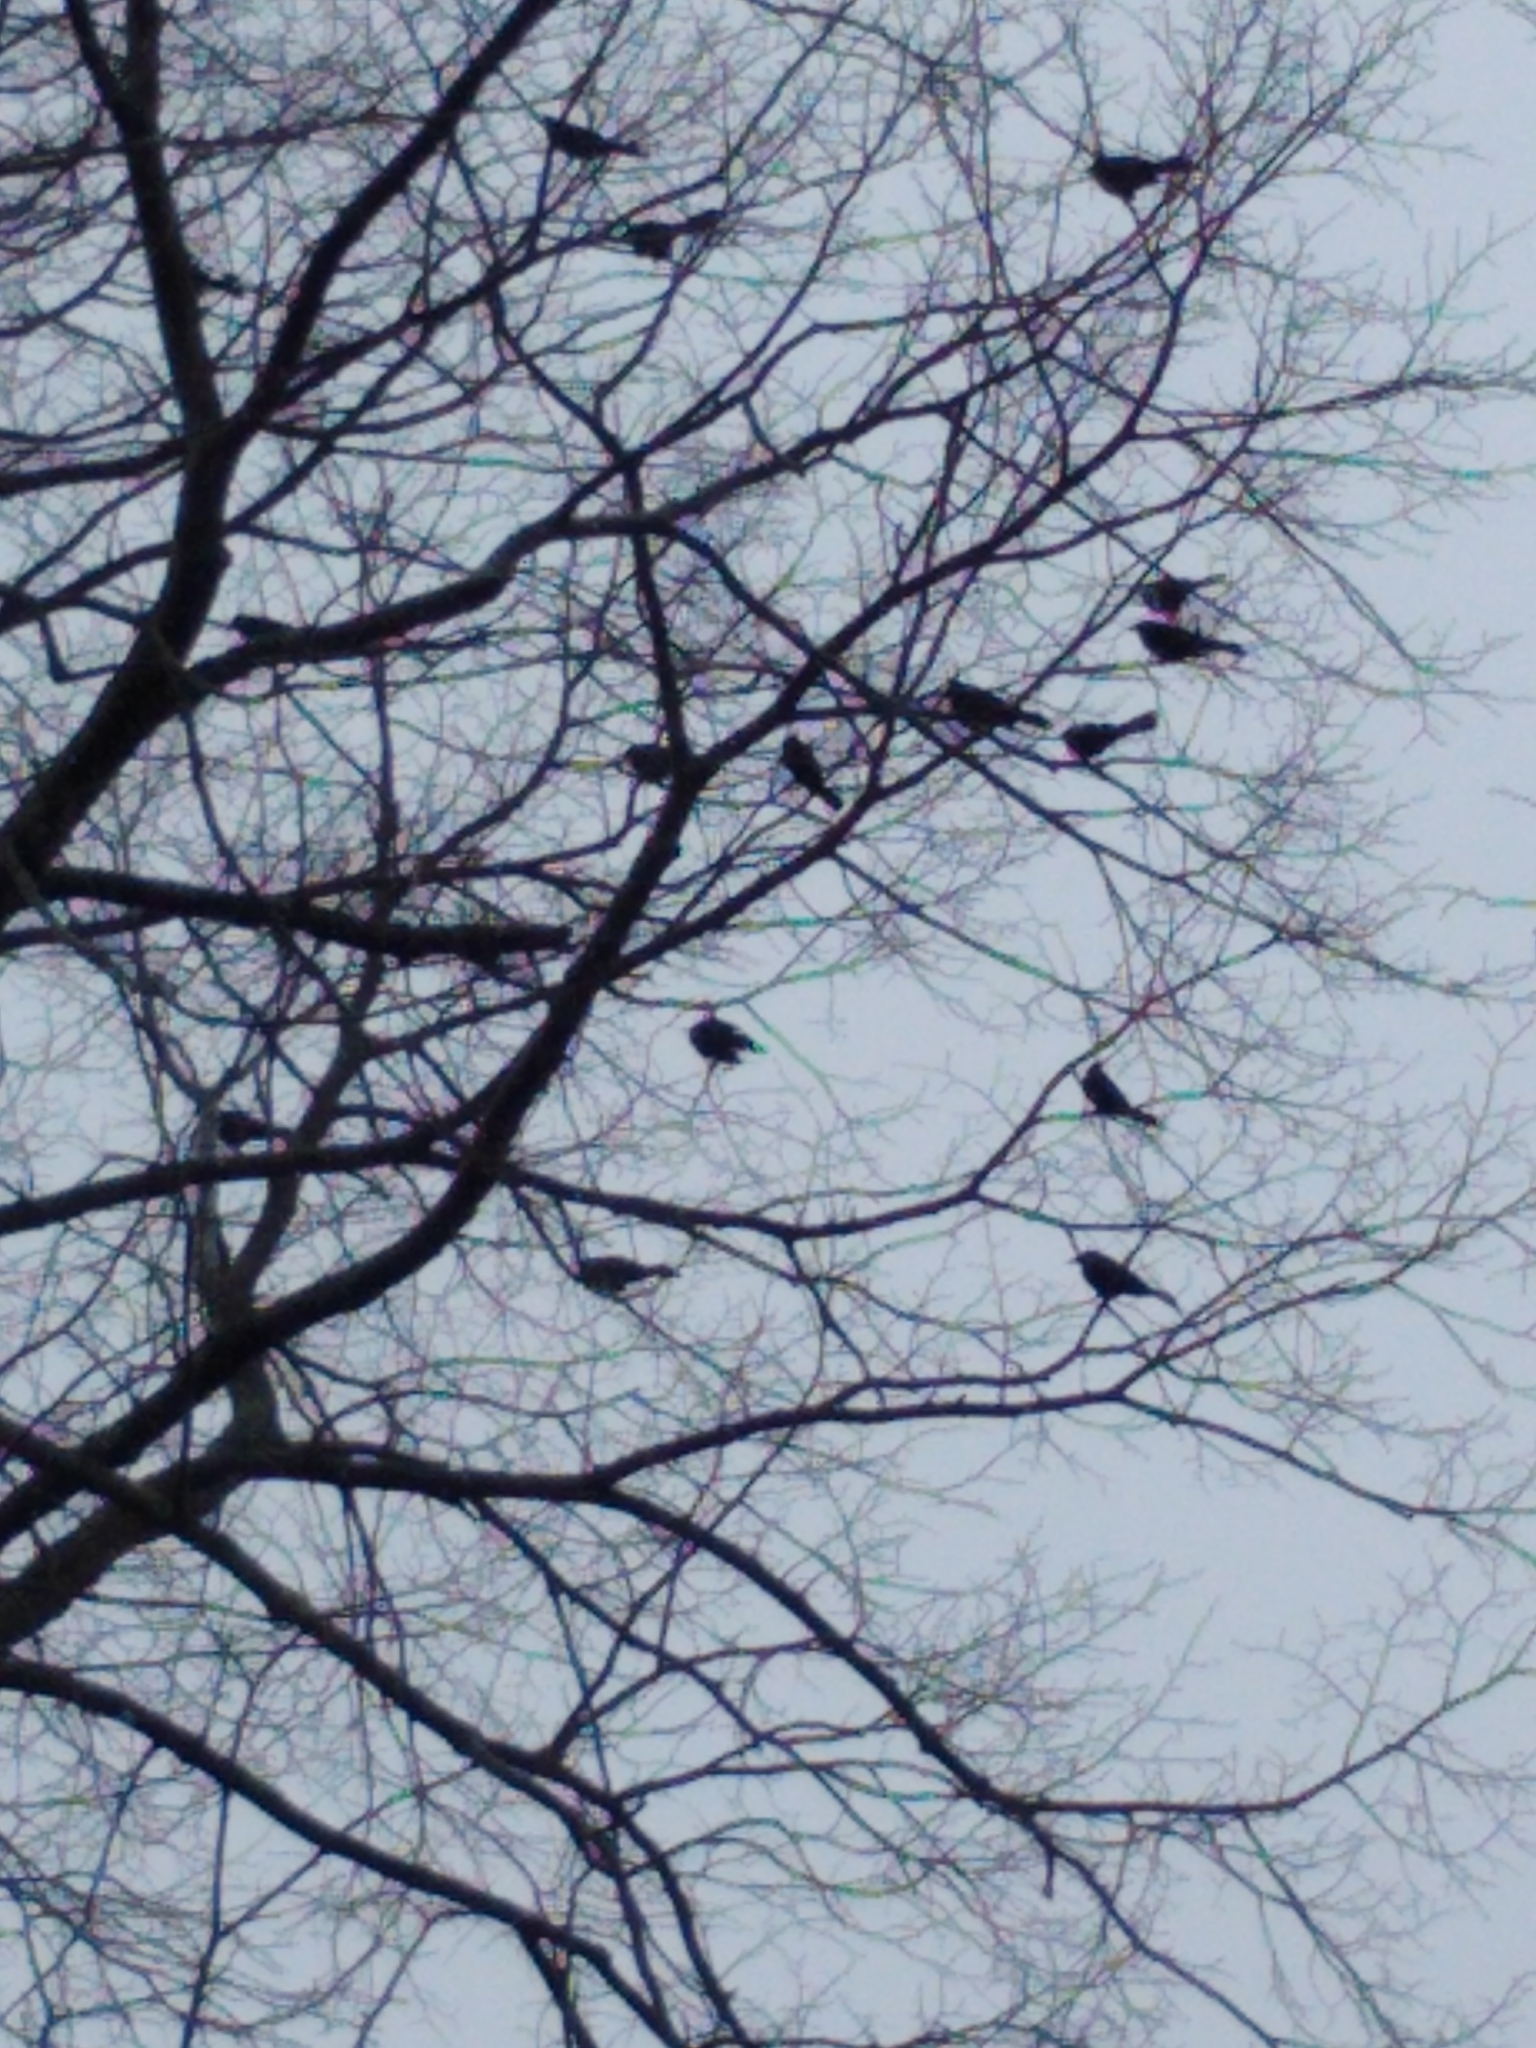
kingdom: Animalia
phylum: Chordata
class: Aves
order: Passeriformes
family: Icteridae
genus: Agelaius
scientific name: Agelaius phoeniceus
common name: Red-winged blackbird
